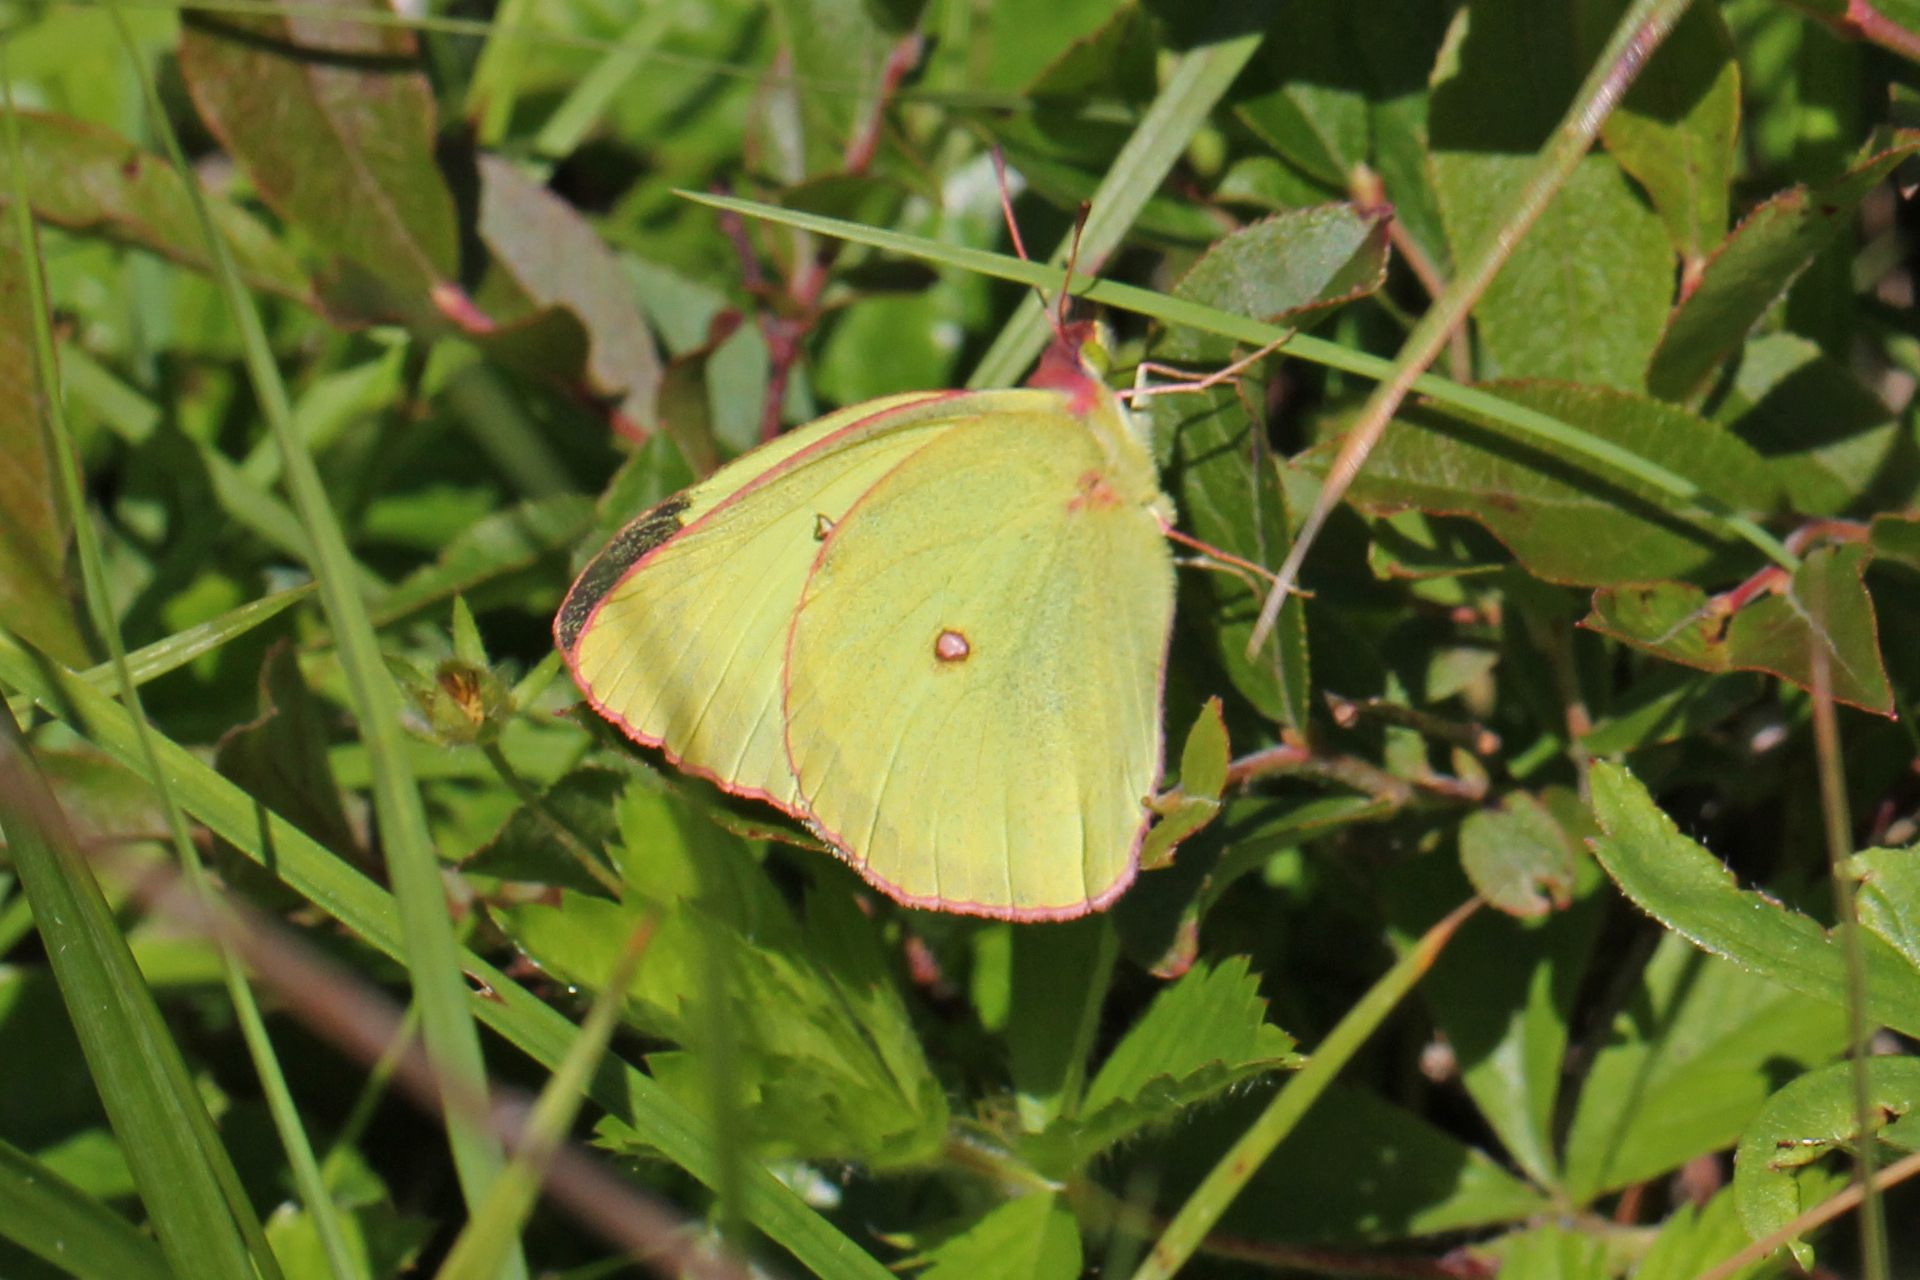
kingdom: Animalia
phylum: Arthropoda
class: Insecta
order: Lepidoptera
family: Pieridae
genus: Colias
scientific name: Colias interior
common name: Pink-edged sulphur
